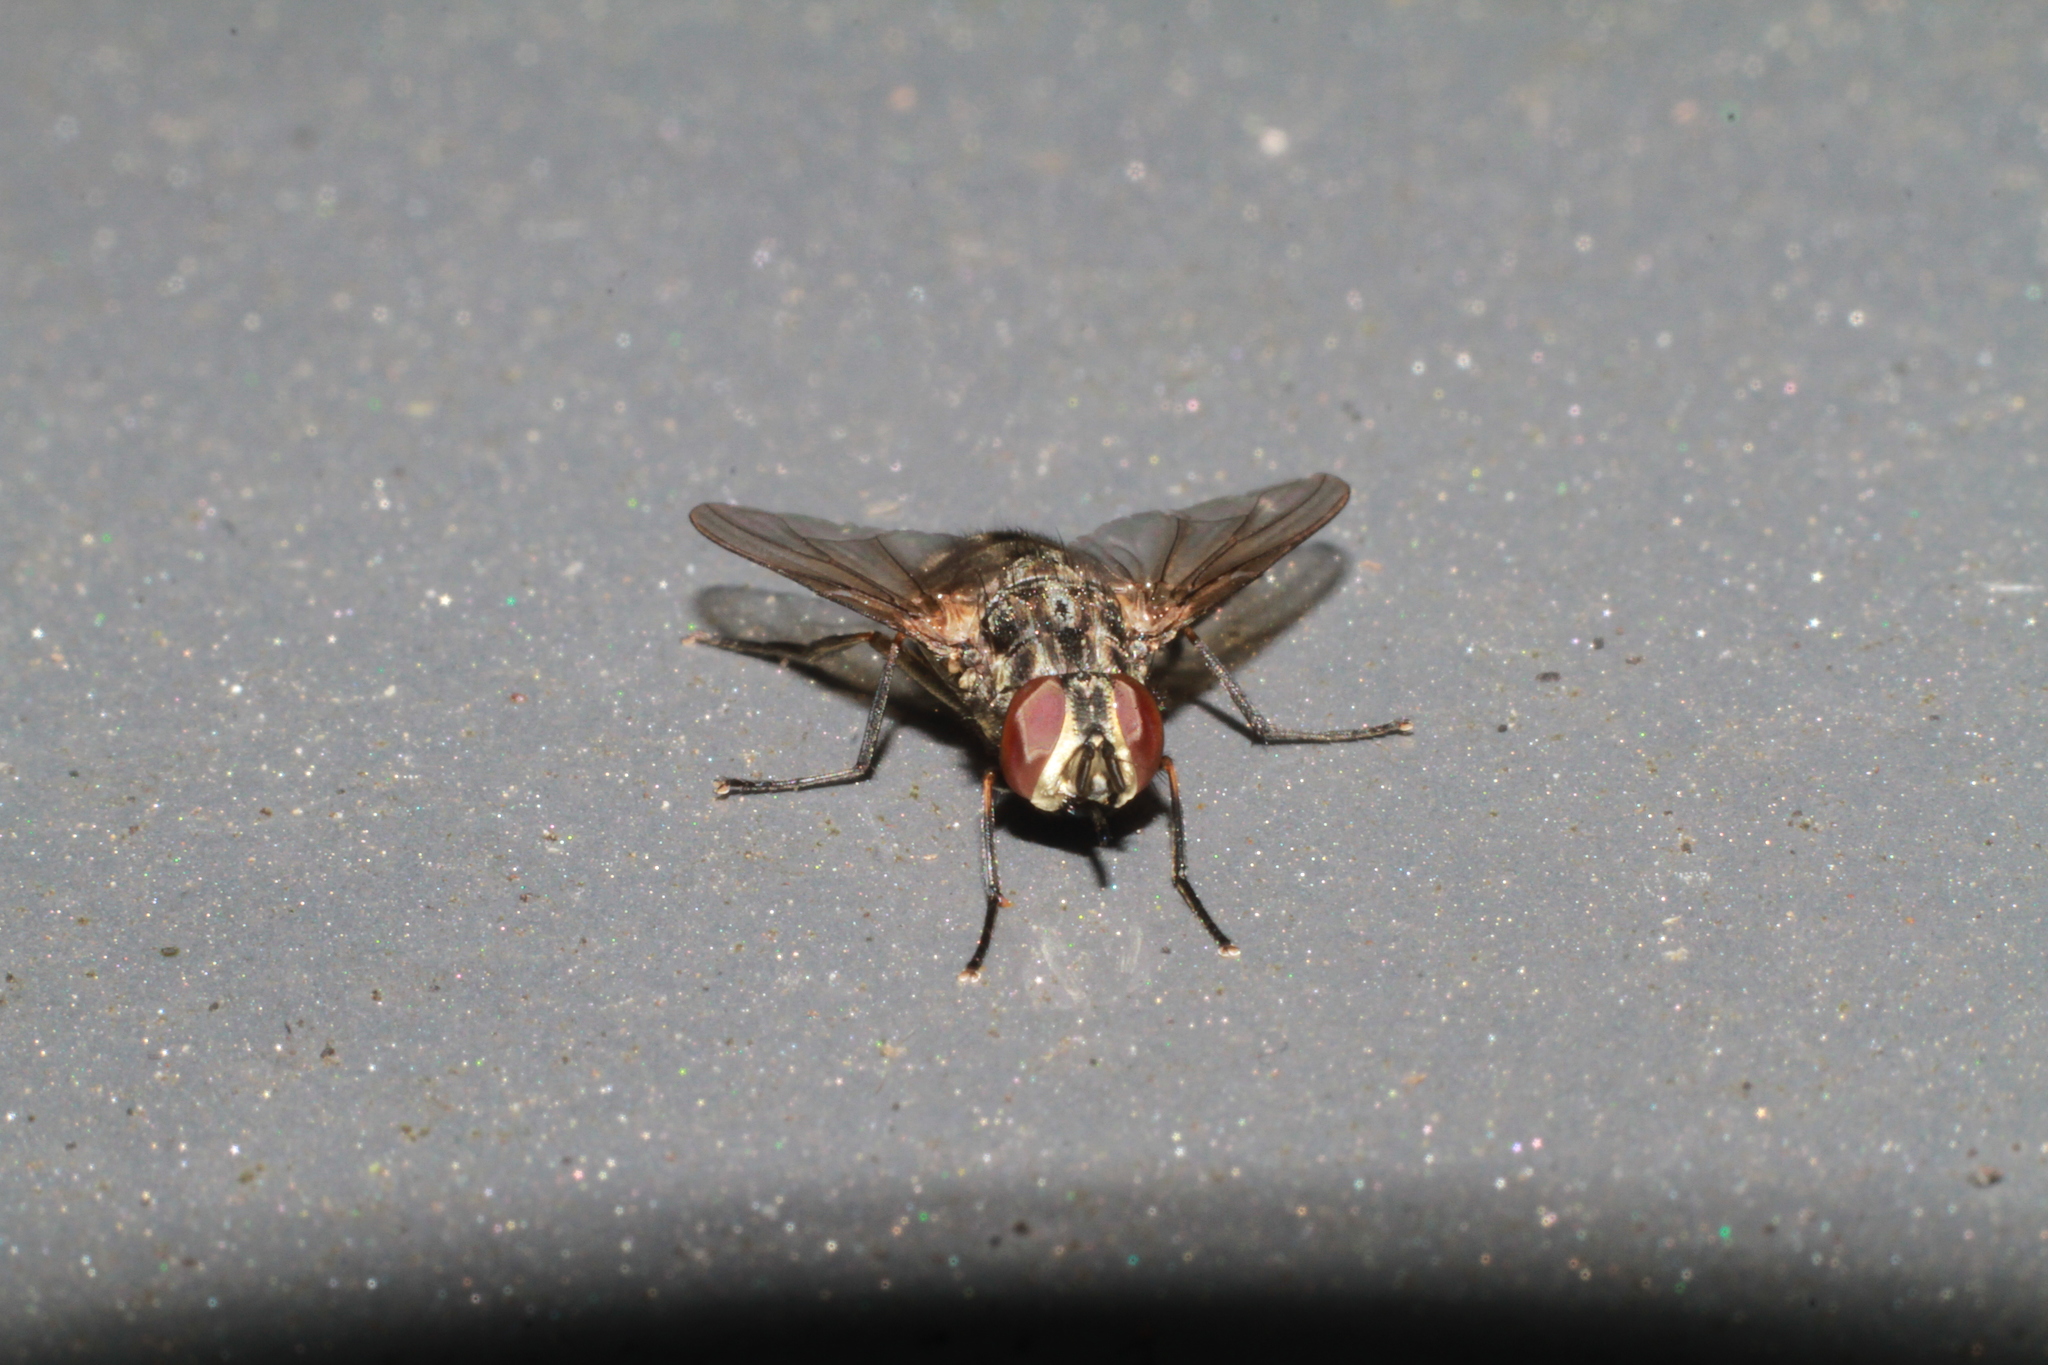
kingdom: Animalia
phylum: Arthropoda
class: Insecta
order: Diptera
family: Muscidae
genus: Stomoxys
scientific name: Stomoxys calcitrans
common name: Stable fly
